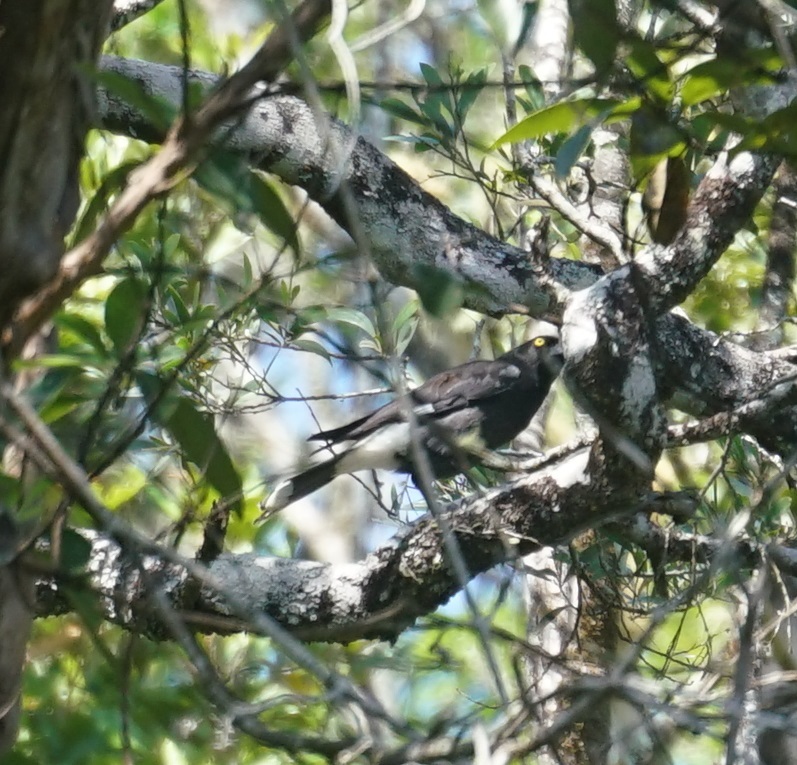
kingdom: Animalia
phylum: Chordata
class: Aves
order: Passeriformes
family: Cracticidae
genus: Strepera
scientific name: Strepera graculina
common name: Pied currawong
